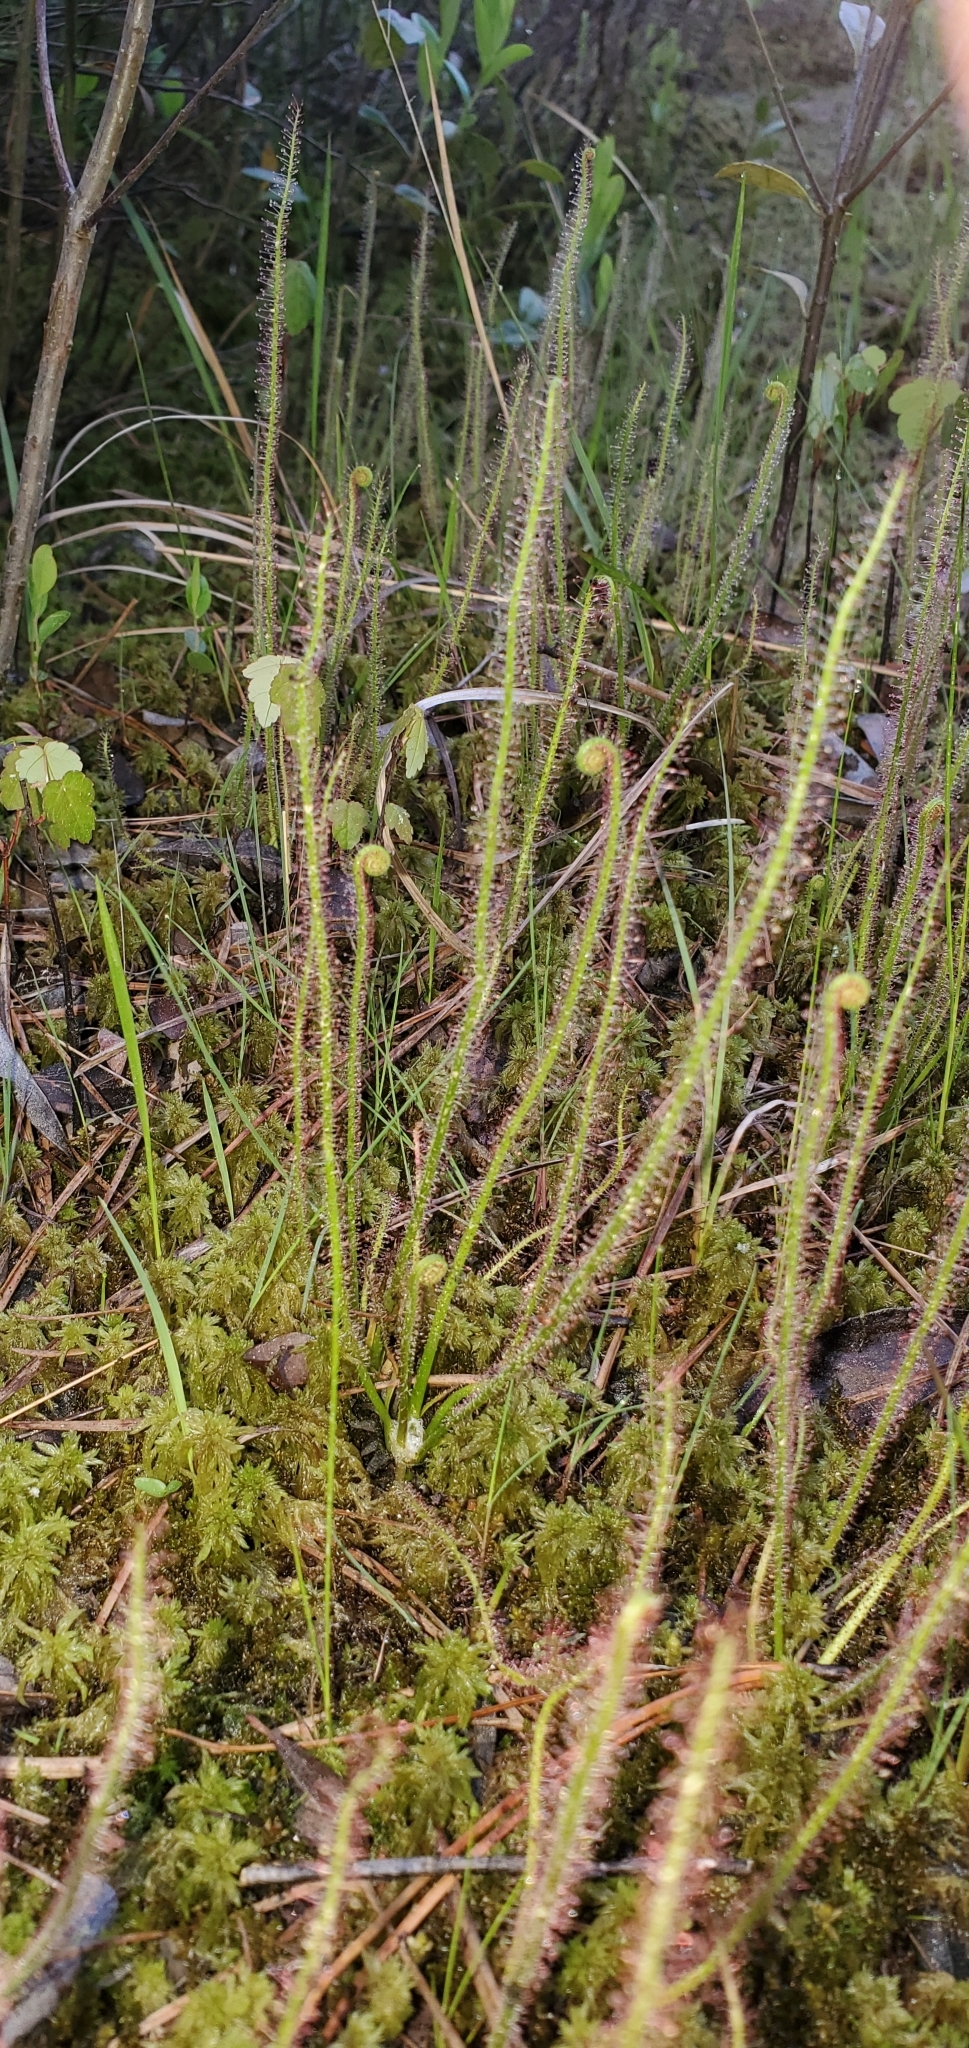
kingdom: Plantae
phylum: Tracheophyta
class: Magnoliopsida
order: Caryophyllales
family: Droseraceae
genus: Drosera
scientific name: Drosera filiformis
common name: Dew-thread
